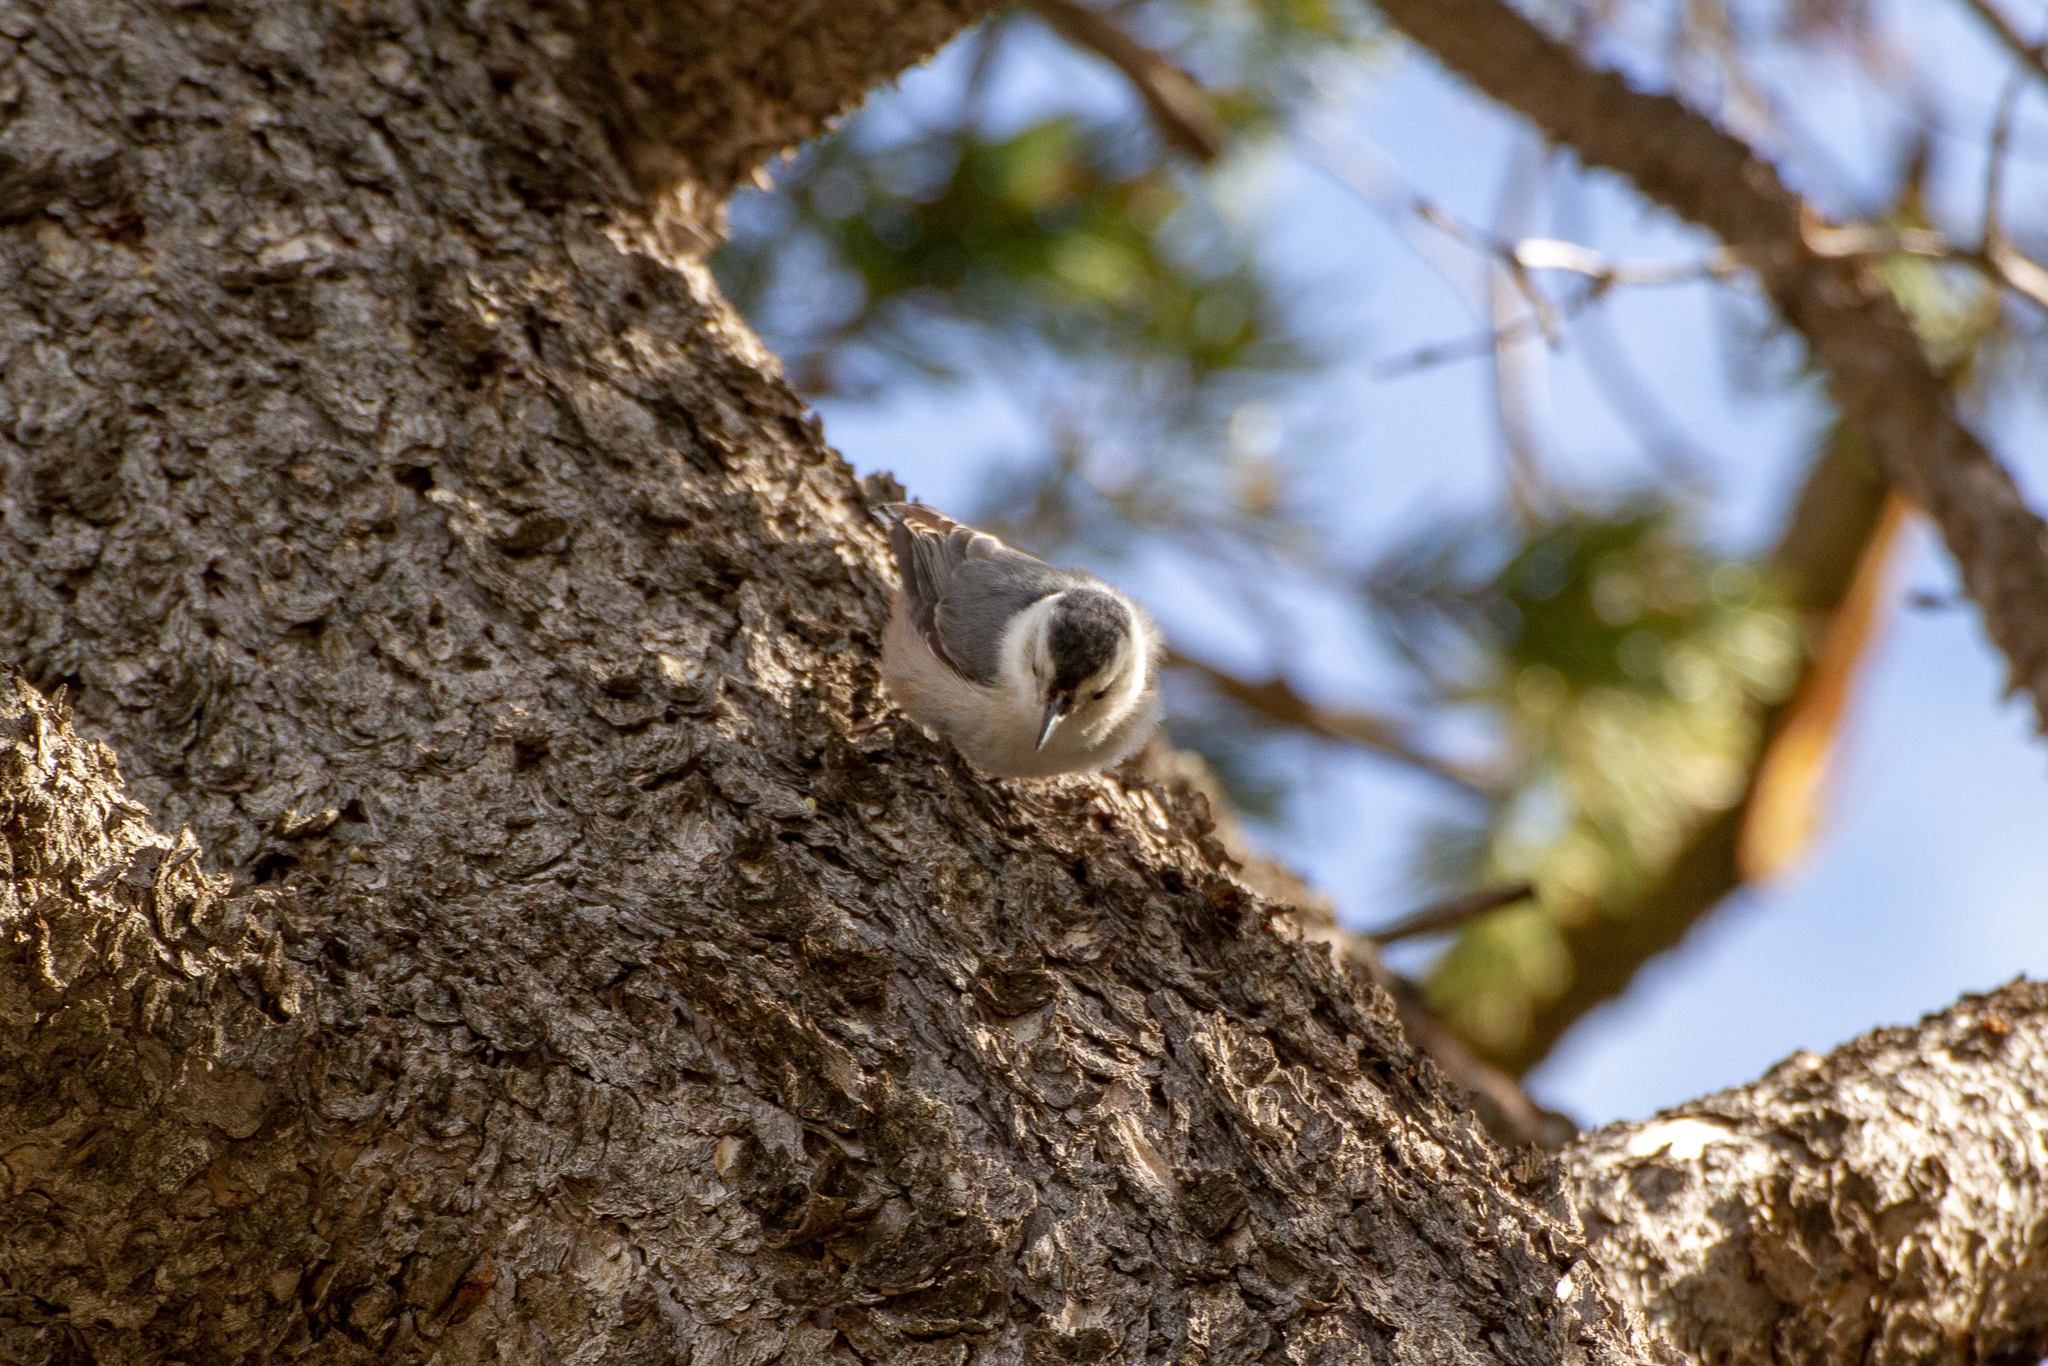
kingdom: Animalia
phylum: Chordata
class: Aves
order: Passeriformes
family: Sittidae
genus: Sitta
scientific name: Sitta carolinensis
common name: White-breasted nuthatch
